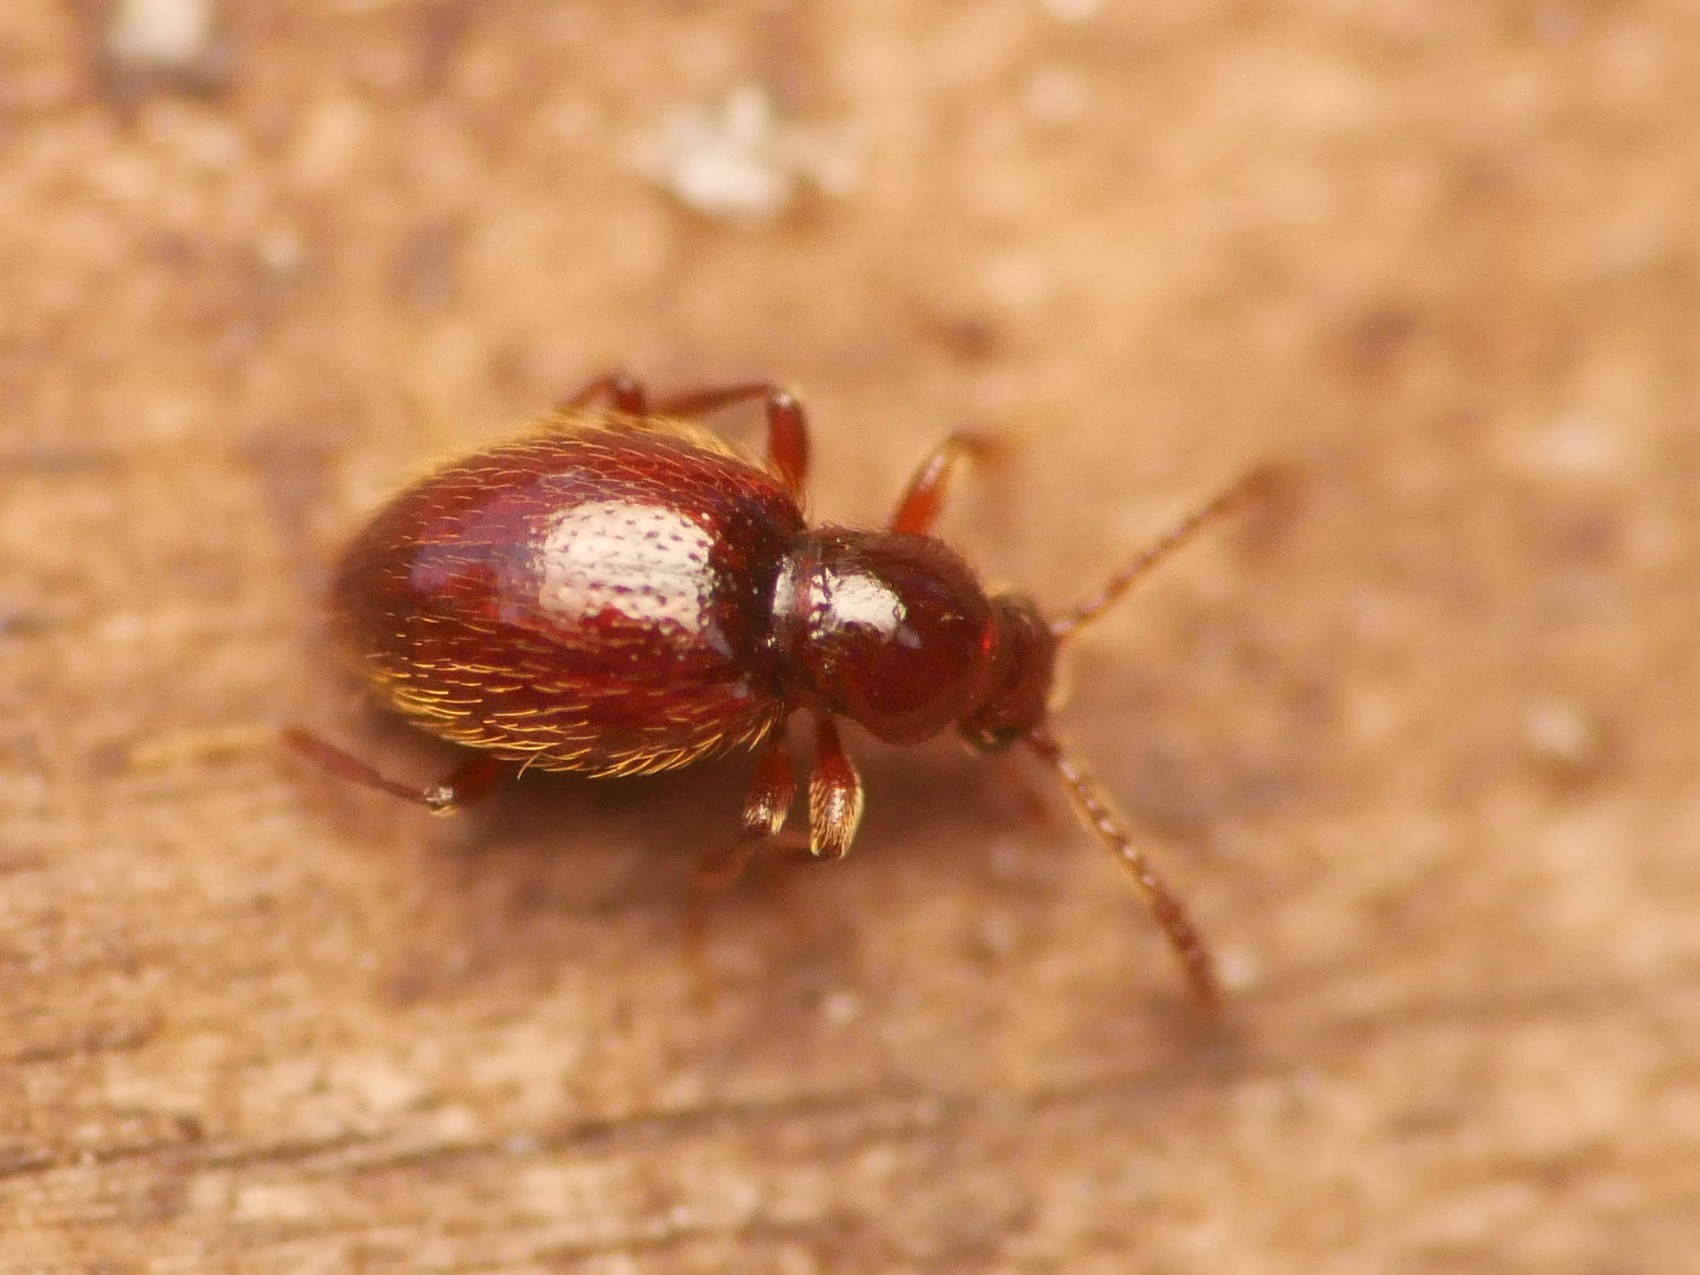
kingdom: Animalia
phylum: Arthropoda
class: Insecta
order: Coleoptera
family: Staphylinidae
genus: Stenichnus
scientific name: Stenichnus godarti
